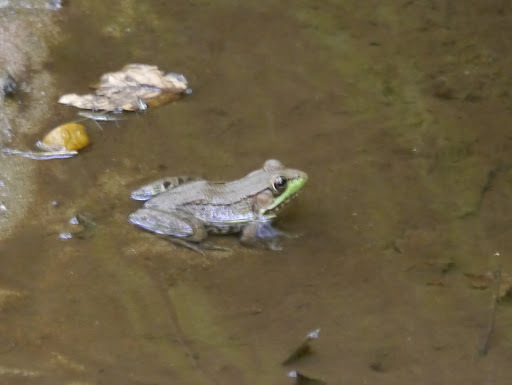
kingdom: Animalia
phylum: Chordata
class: Amphibia
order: Anura
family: Ranidae
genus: Lithobates
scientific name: Lithobates clamitans
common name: Green frog
